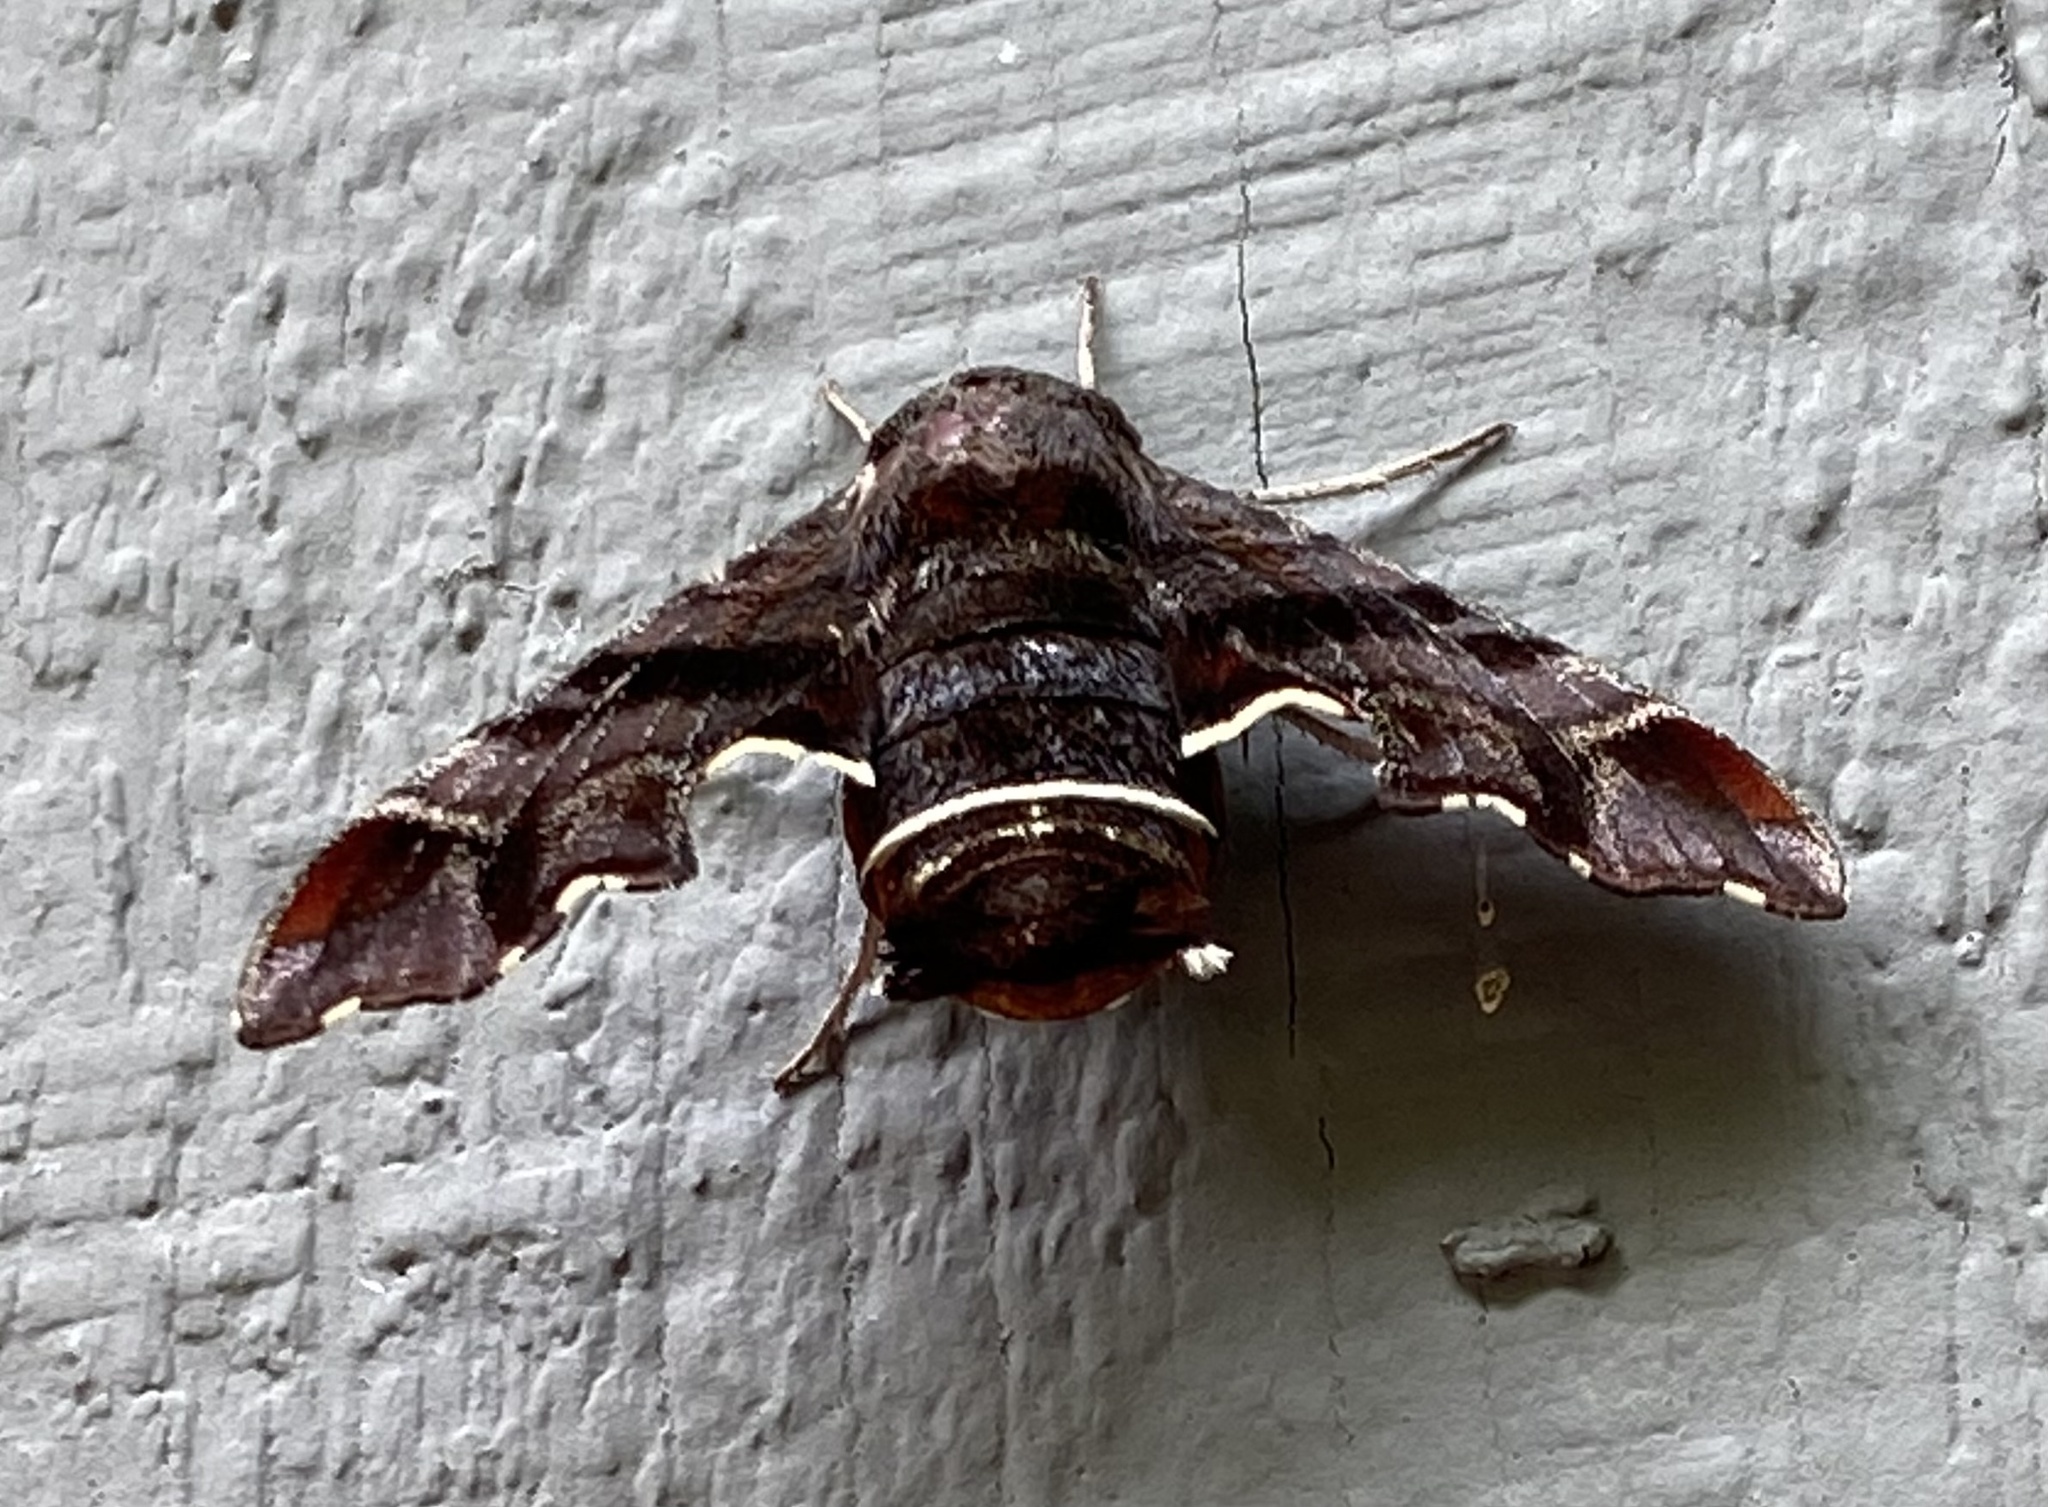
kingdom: Animalia
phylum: Arthropoda
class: Insecta
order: Lepidoptera
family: Sphingidae
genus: Amphion
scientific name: Amphion floridensis
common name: Nessus sphinx
